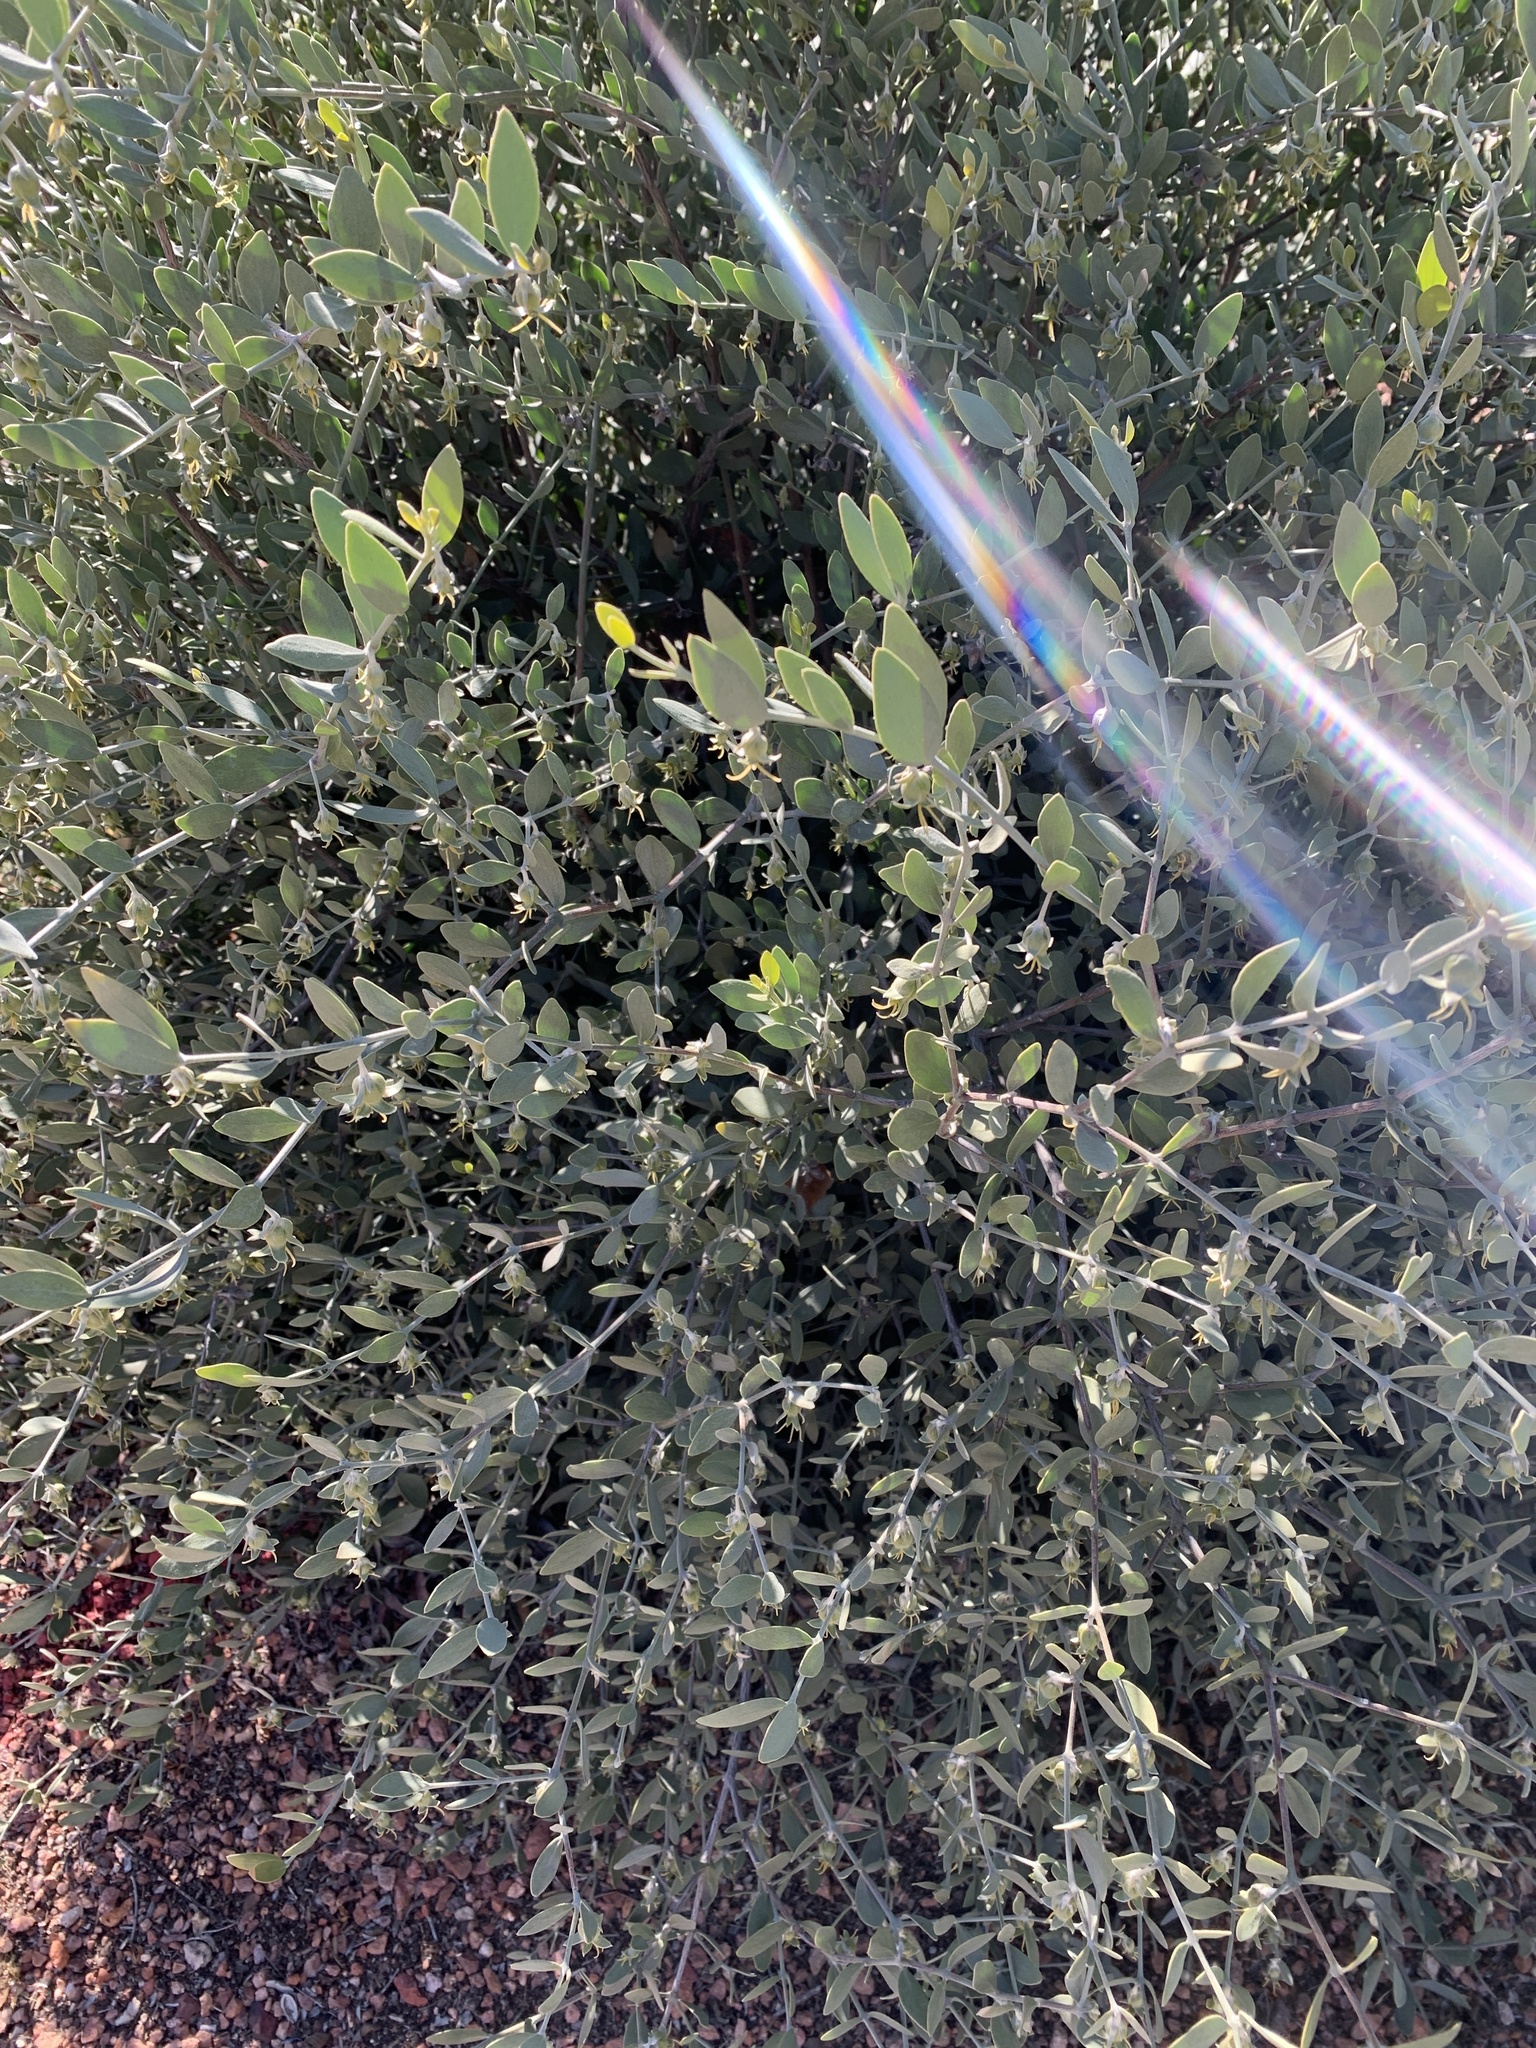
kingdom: Plantae
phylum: Tracheophyta
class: Magnoliopsida
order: Caryophyllales
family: Simmondsiaceae
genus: Simmondsia
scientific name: Simmondsia chinensis
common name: Jojoba
